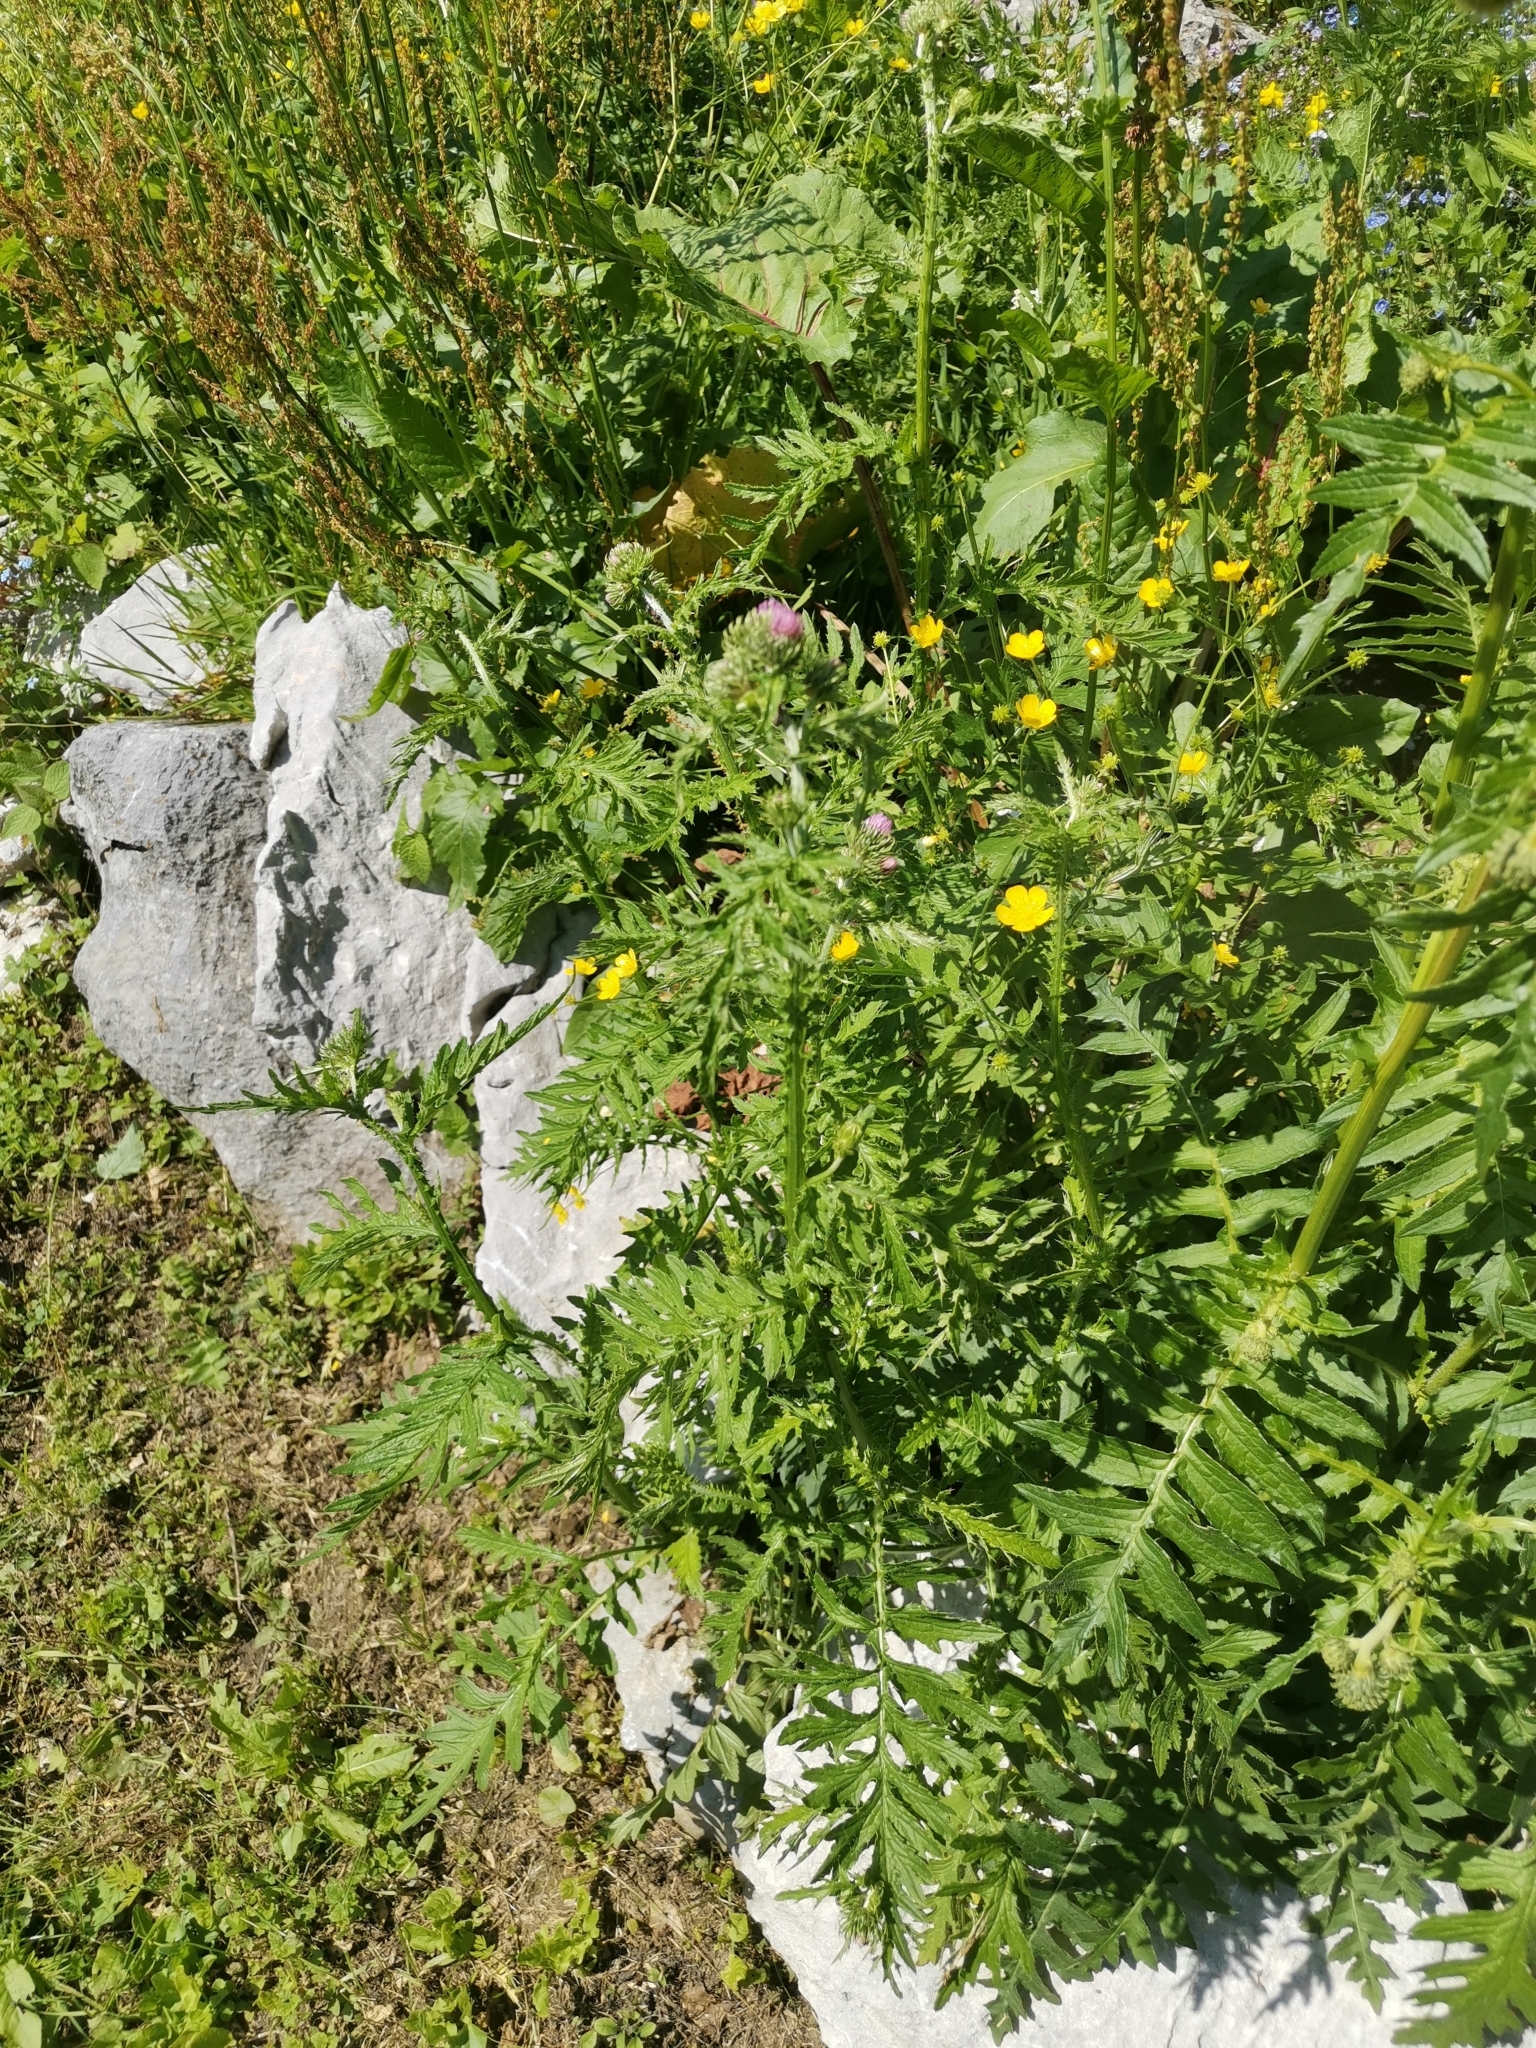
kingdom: Plantae
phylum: Tracheophyta
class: Magnoliopsida
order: Asterales
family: Asteraceae
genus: Carduus
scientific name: Carduus crispus
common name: Welted thistle
